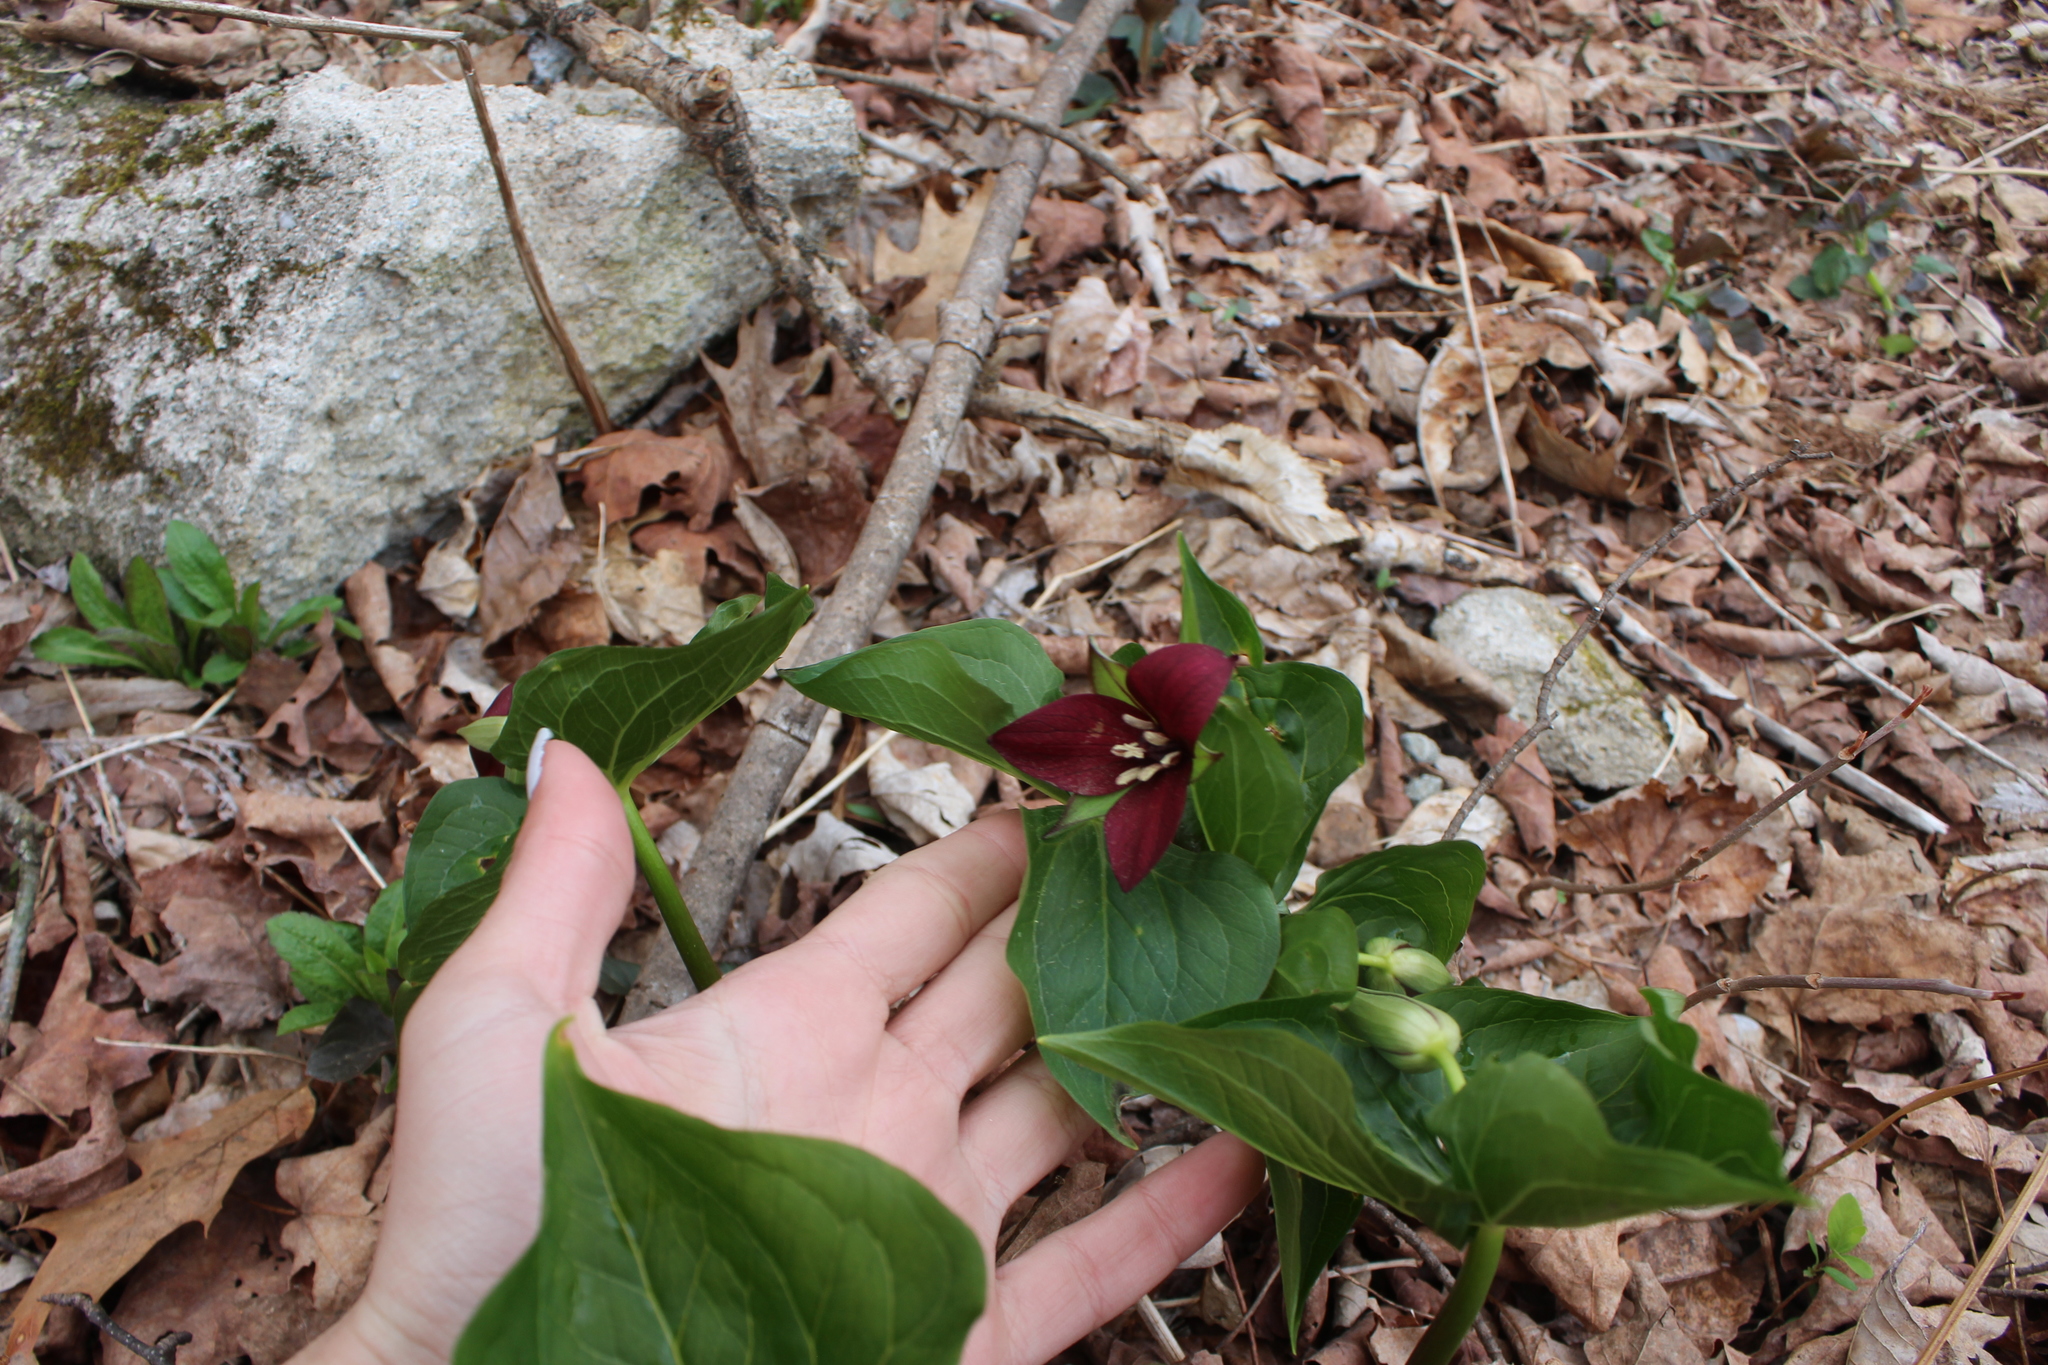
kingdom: Plantae
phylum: Tracheophyta
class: Liliopsida
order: Liliales
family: Melanthiaceae
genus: Trillium
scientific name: Trillium erectum
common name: Purple trillium
